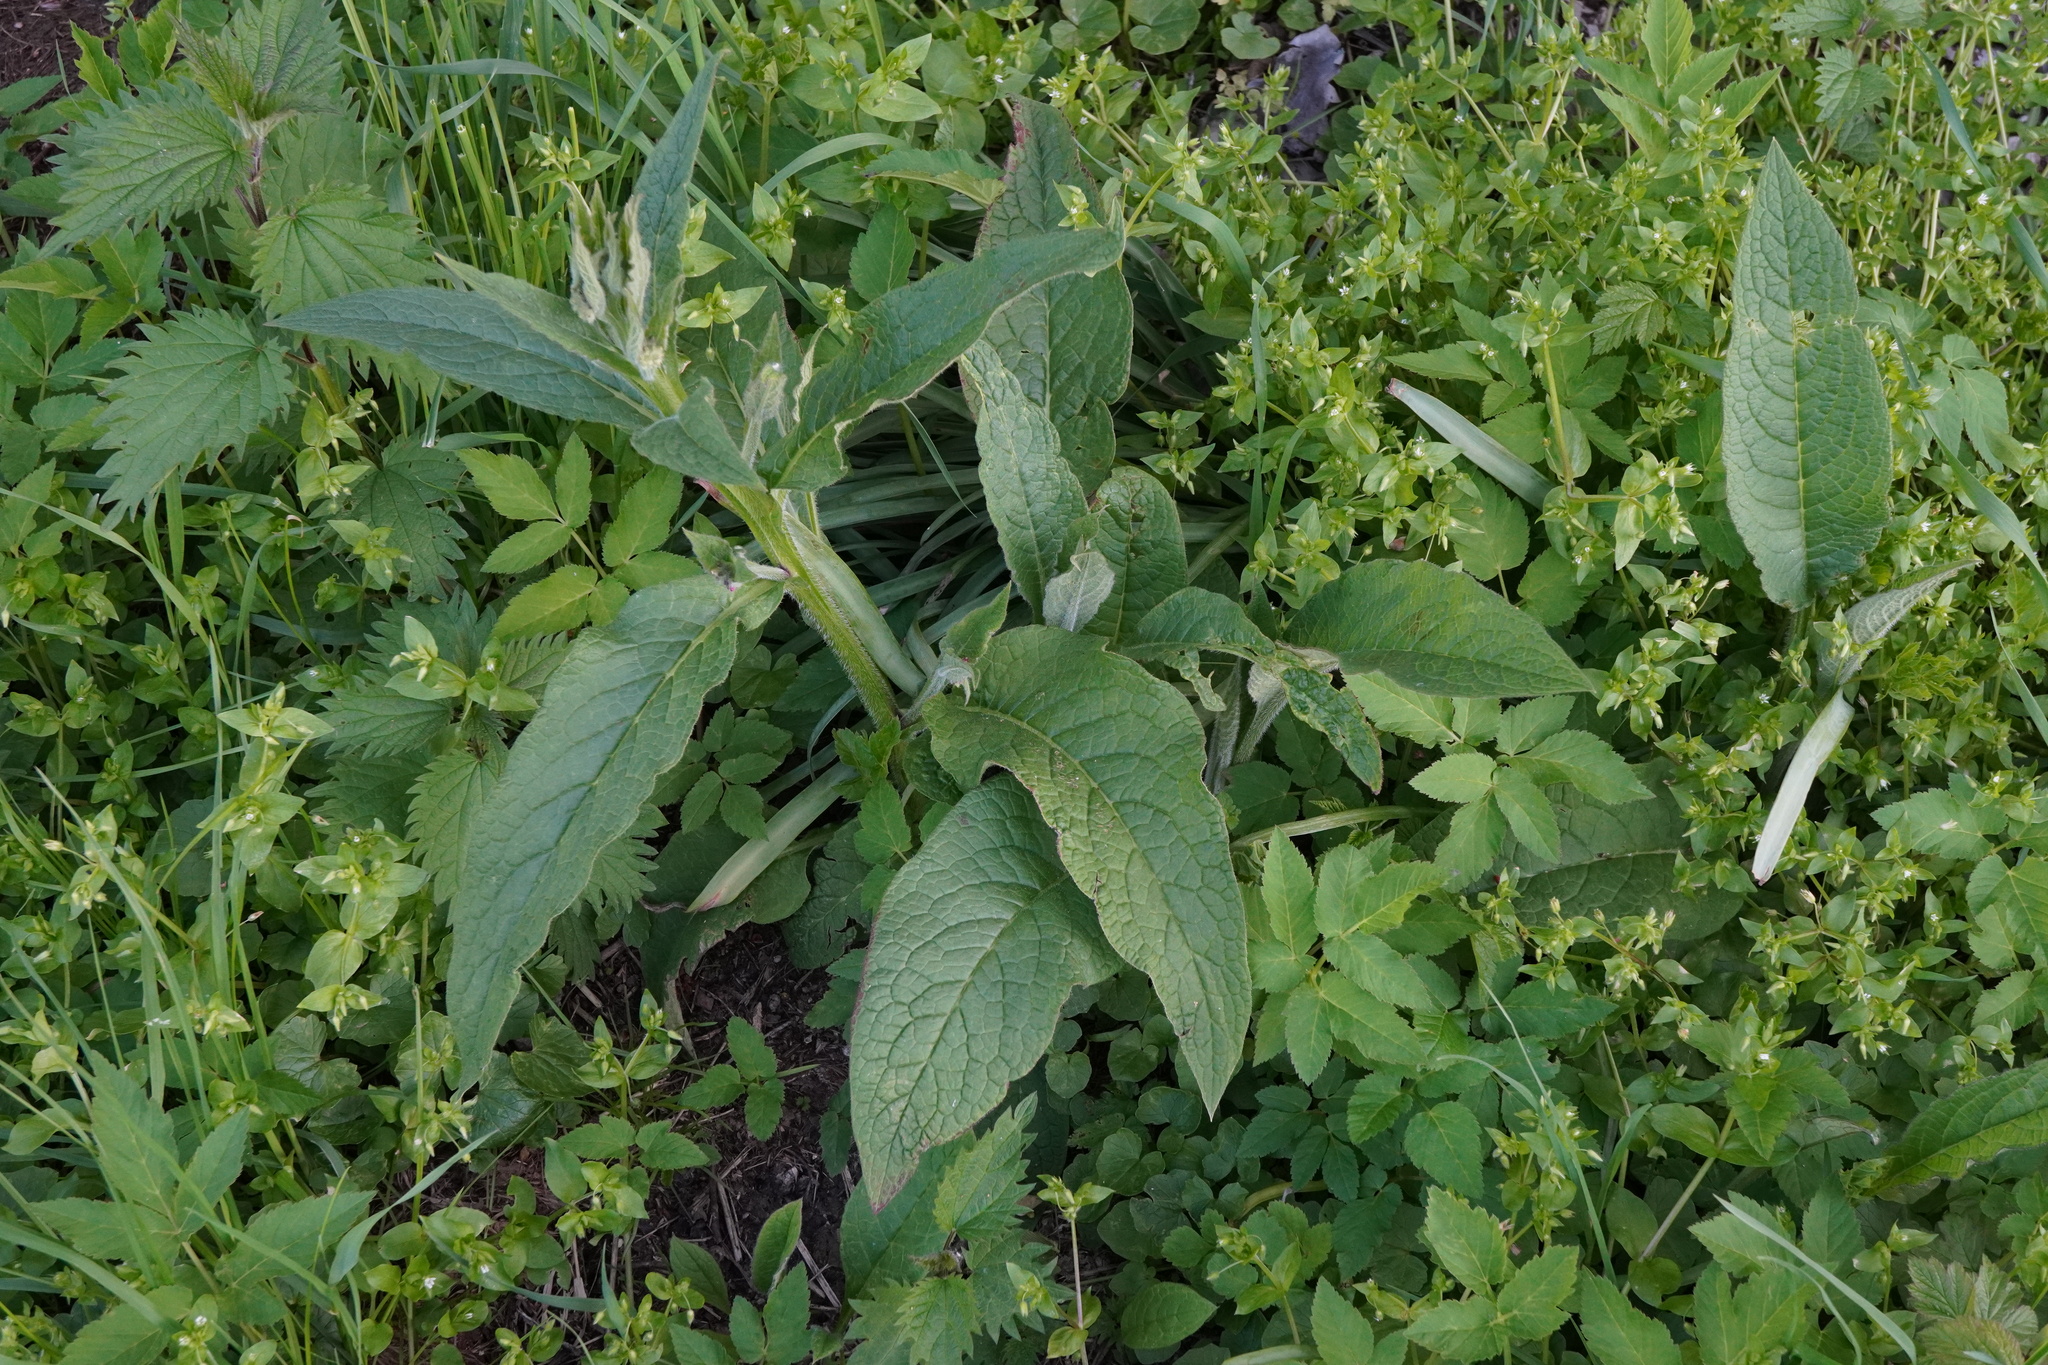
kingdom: Plantae
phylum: Tracheophyta
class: Magnoliopsida
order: Boraginales
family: Boraginaceae
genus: Symphytum
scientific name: Symphytum officinale
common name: Common comfrey
